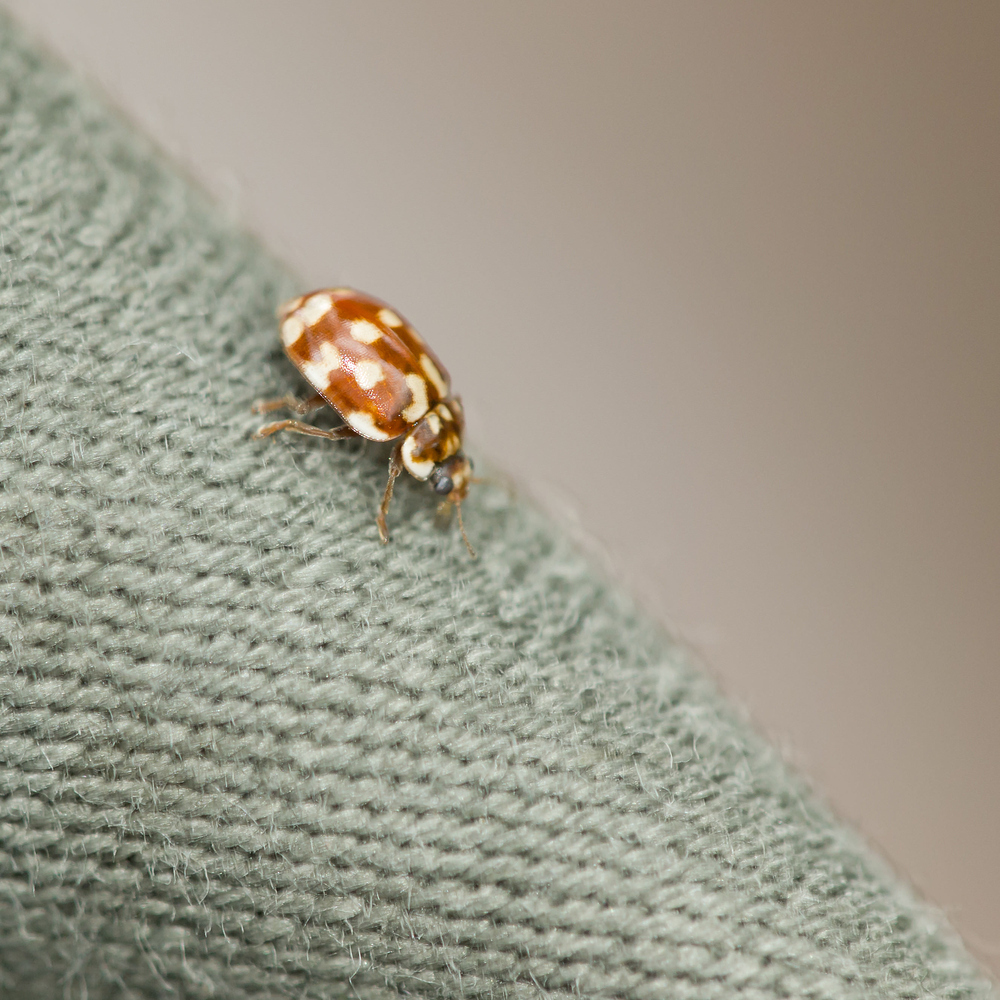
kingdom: Animalia
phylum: Arthropoda
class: Insecta
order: Coleoptera
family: Coccinellidae
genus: Myrrha
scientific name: Myrrha octodecimguttata
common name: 18-spot ladybird
